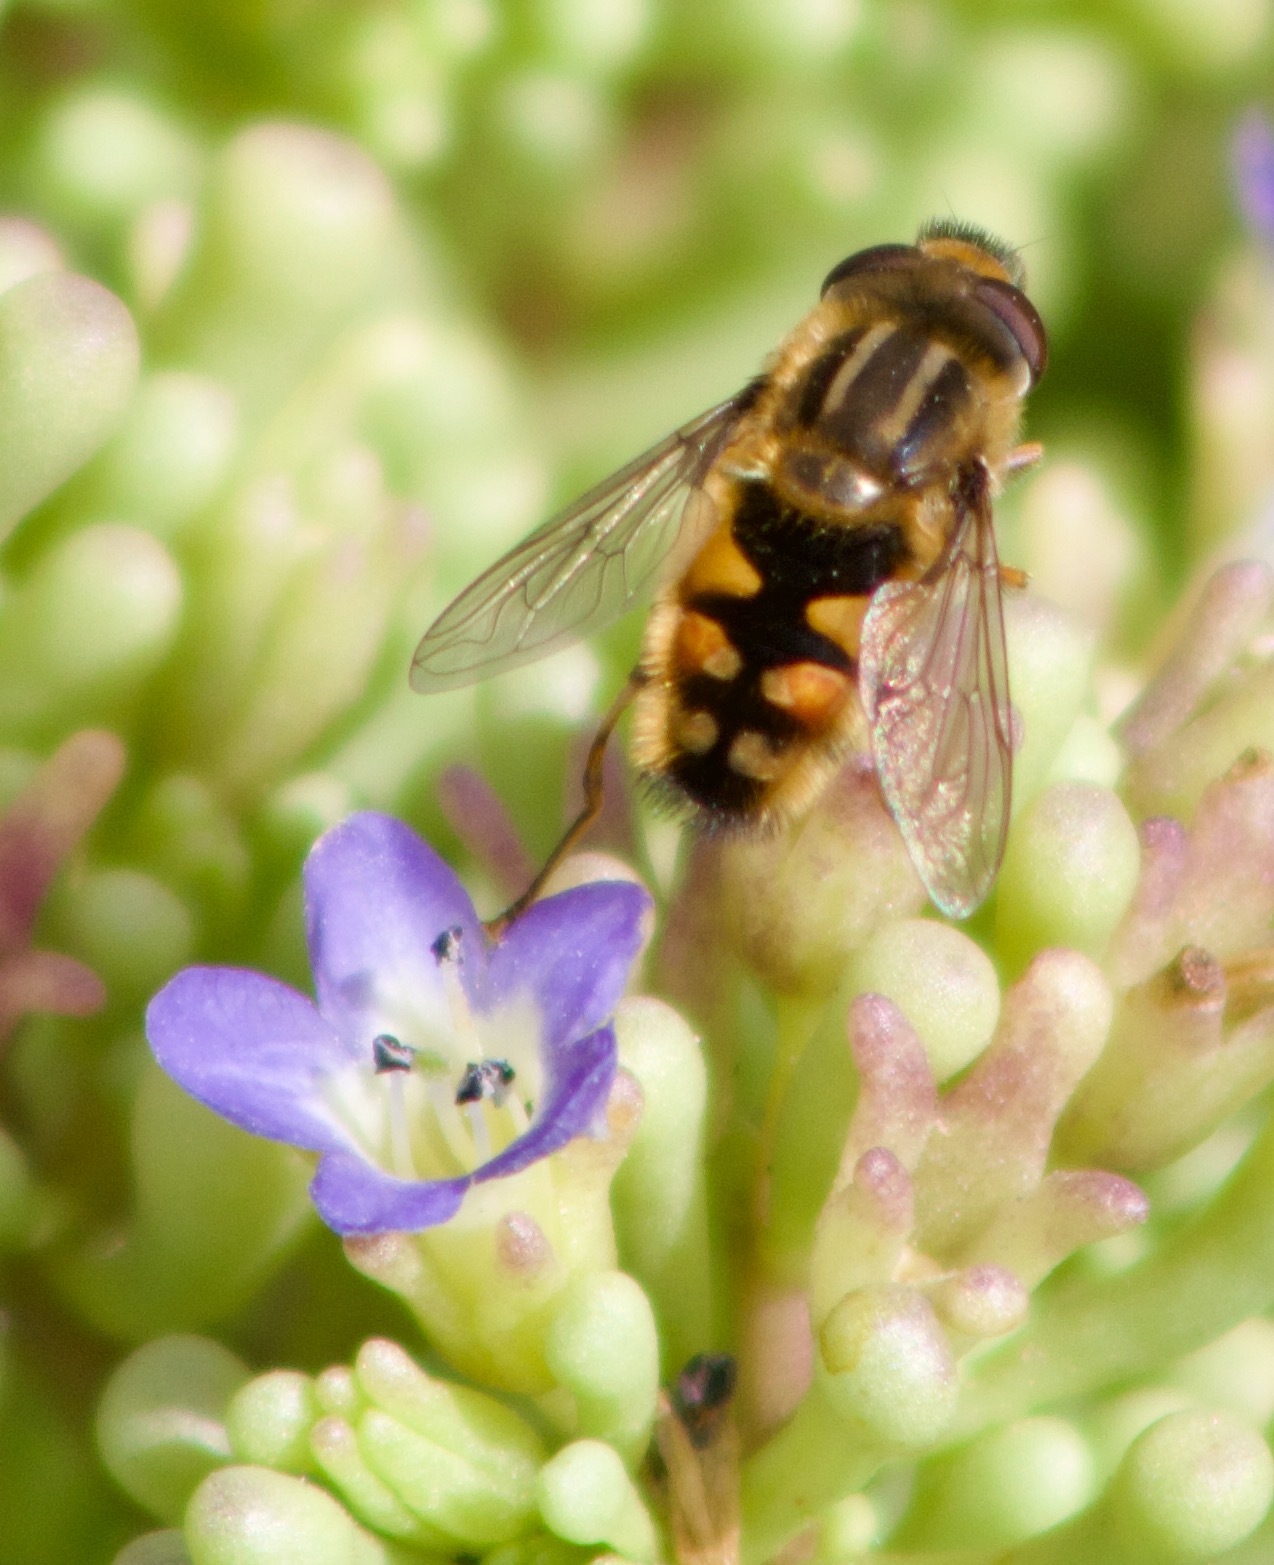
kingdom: Animalia
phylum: Arthropoda
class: Insecta
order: Diptera
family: Syrphidae
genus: Helophilus
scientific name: Helophilus chilensis
